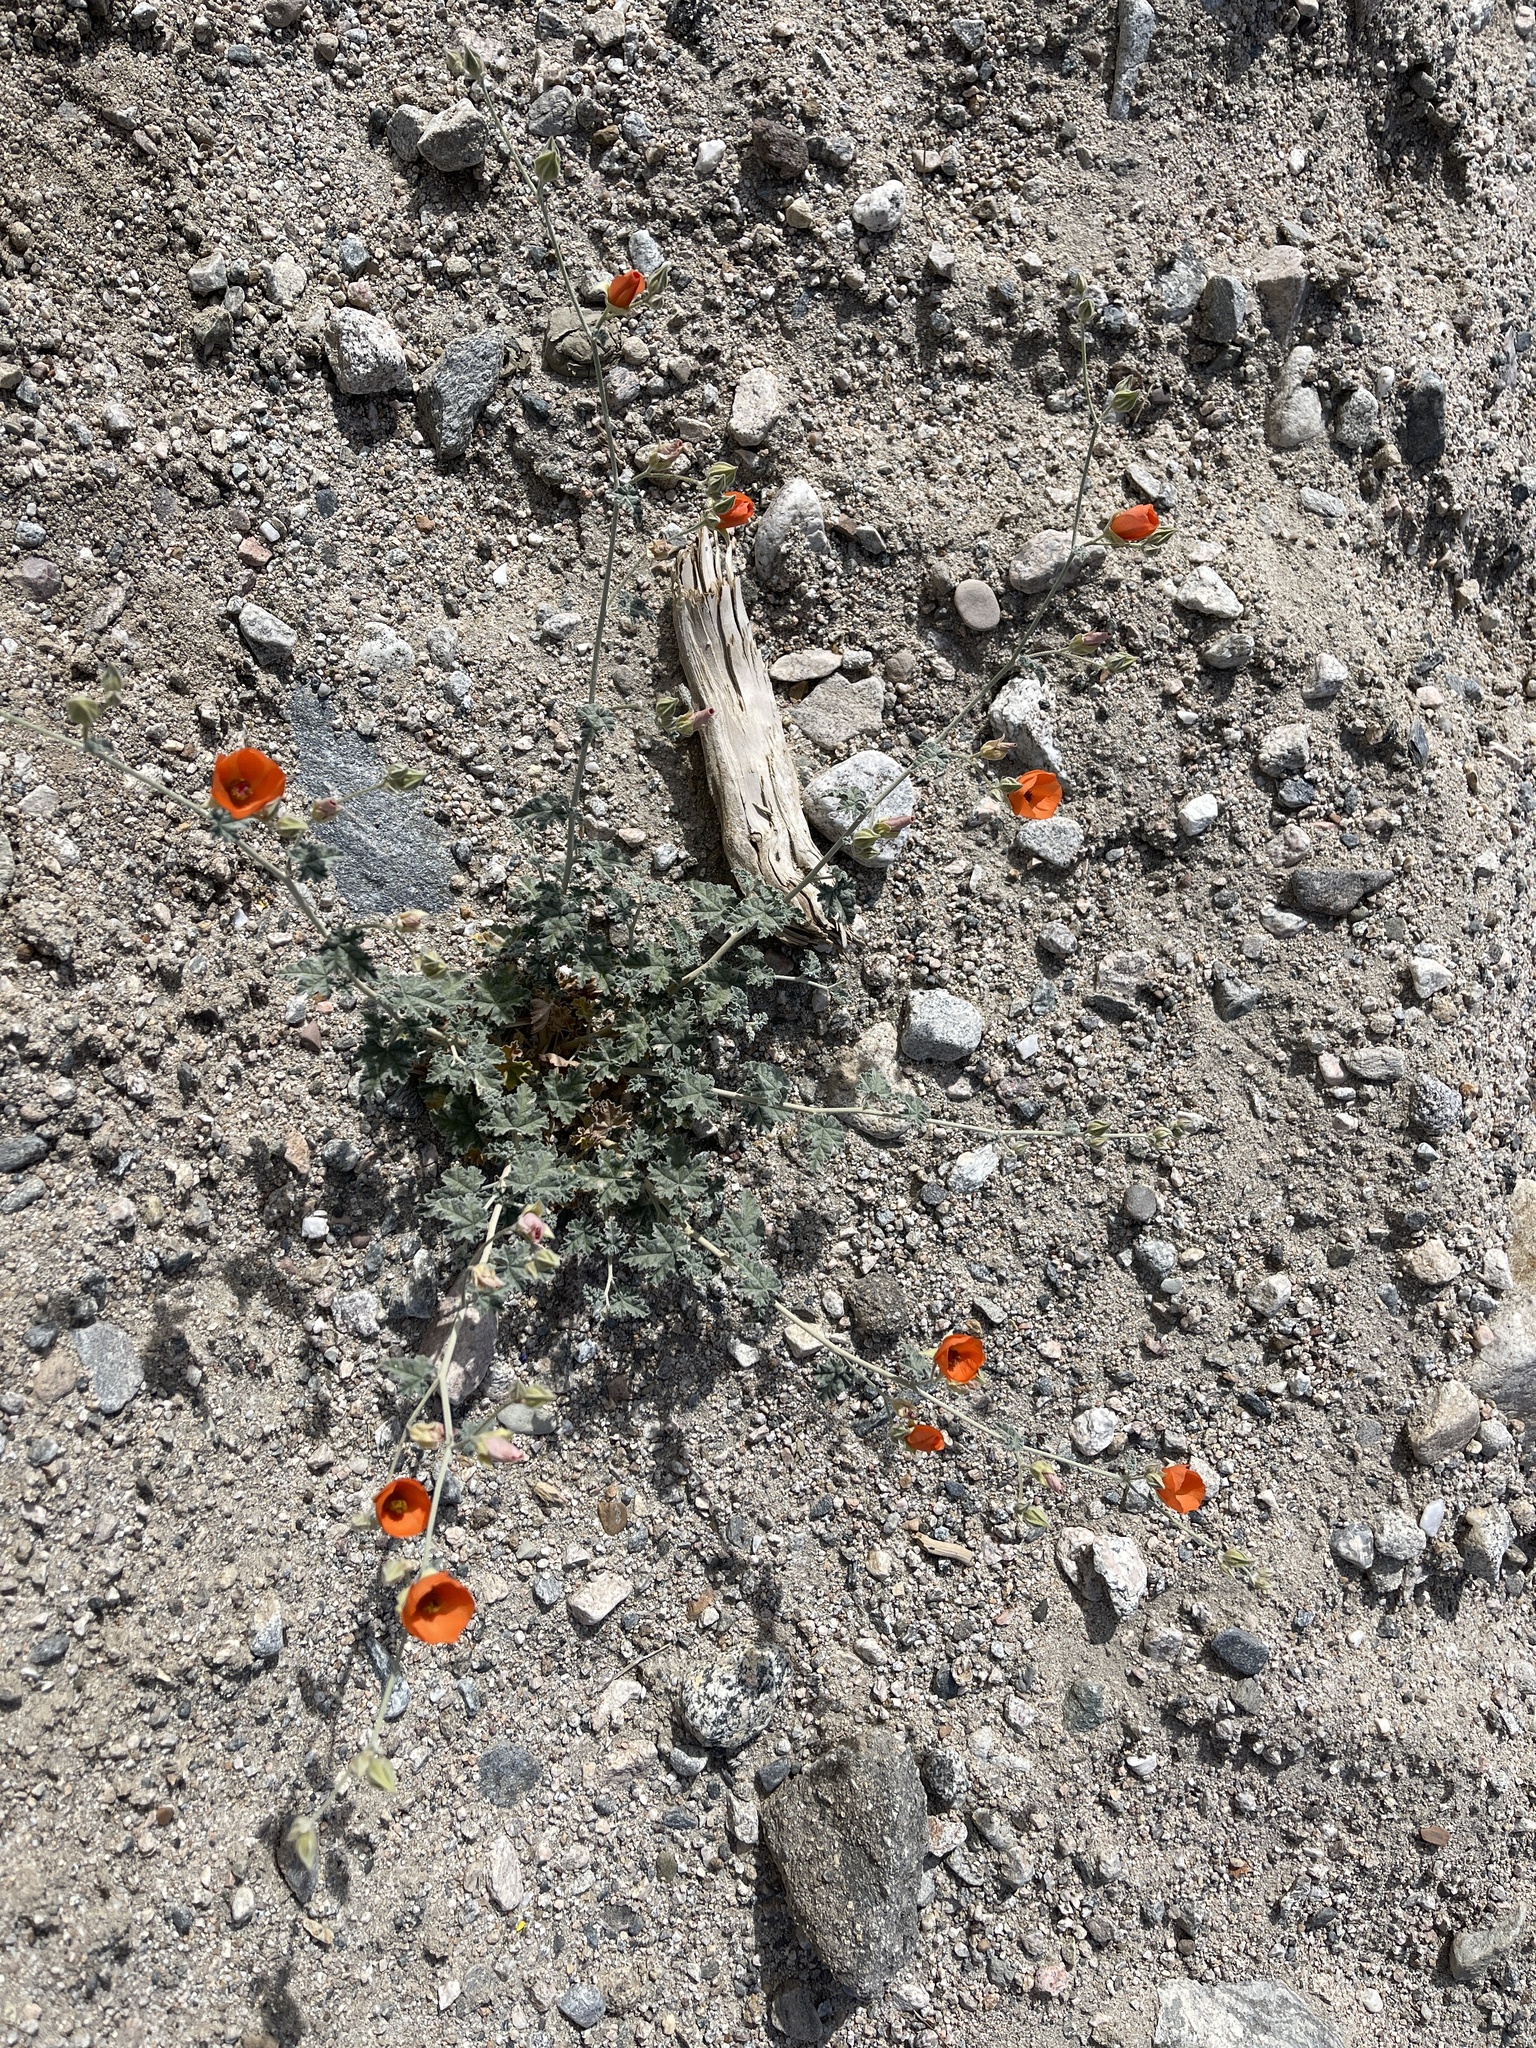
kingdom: Plantae
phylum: Tracheophyta
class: Magnoliopsida
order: Malvales
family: Malvaceae
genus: Sphaeralcea
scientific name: Sphaeralcea ambigua
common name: Apricot globe-mallow
